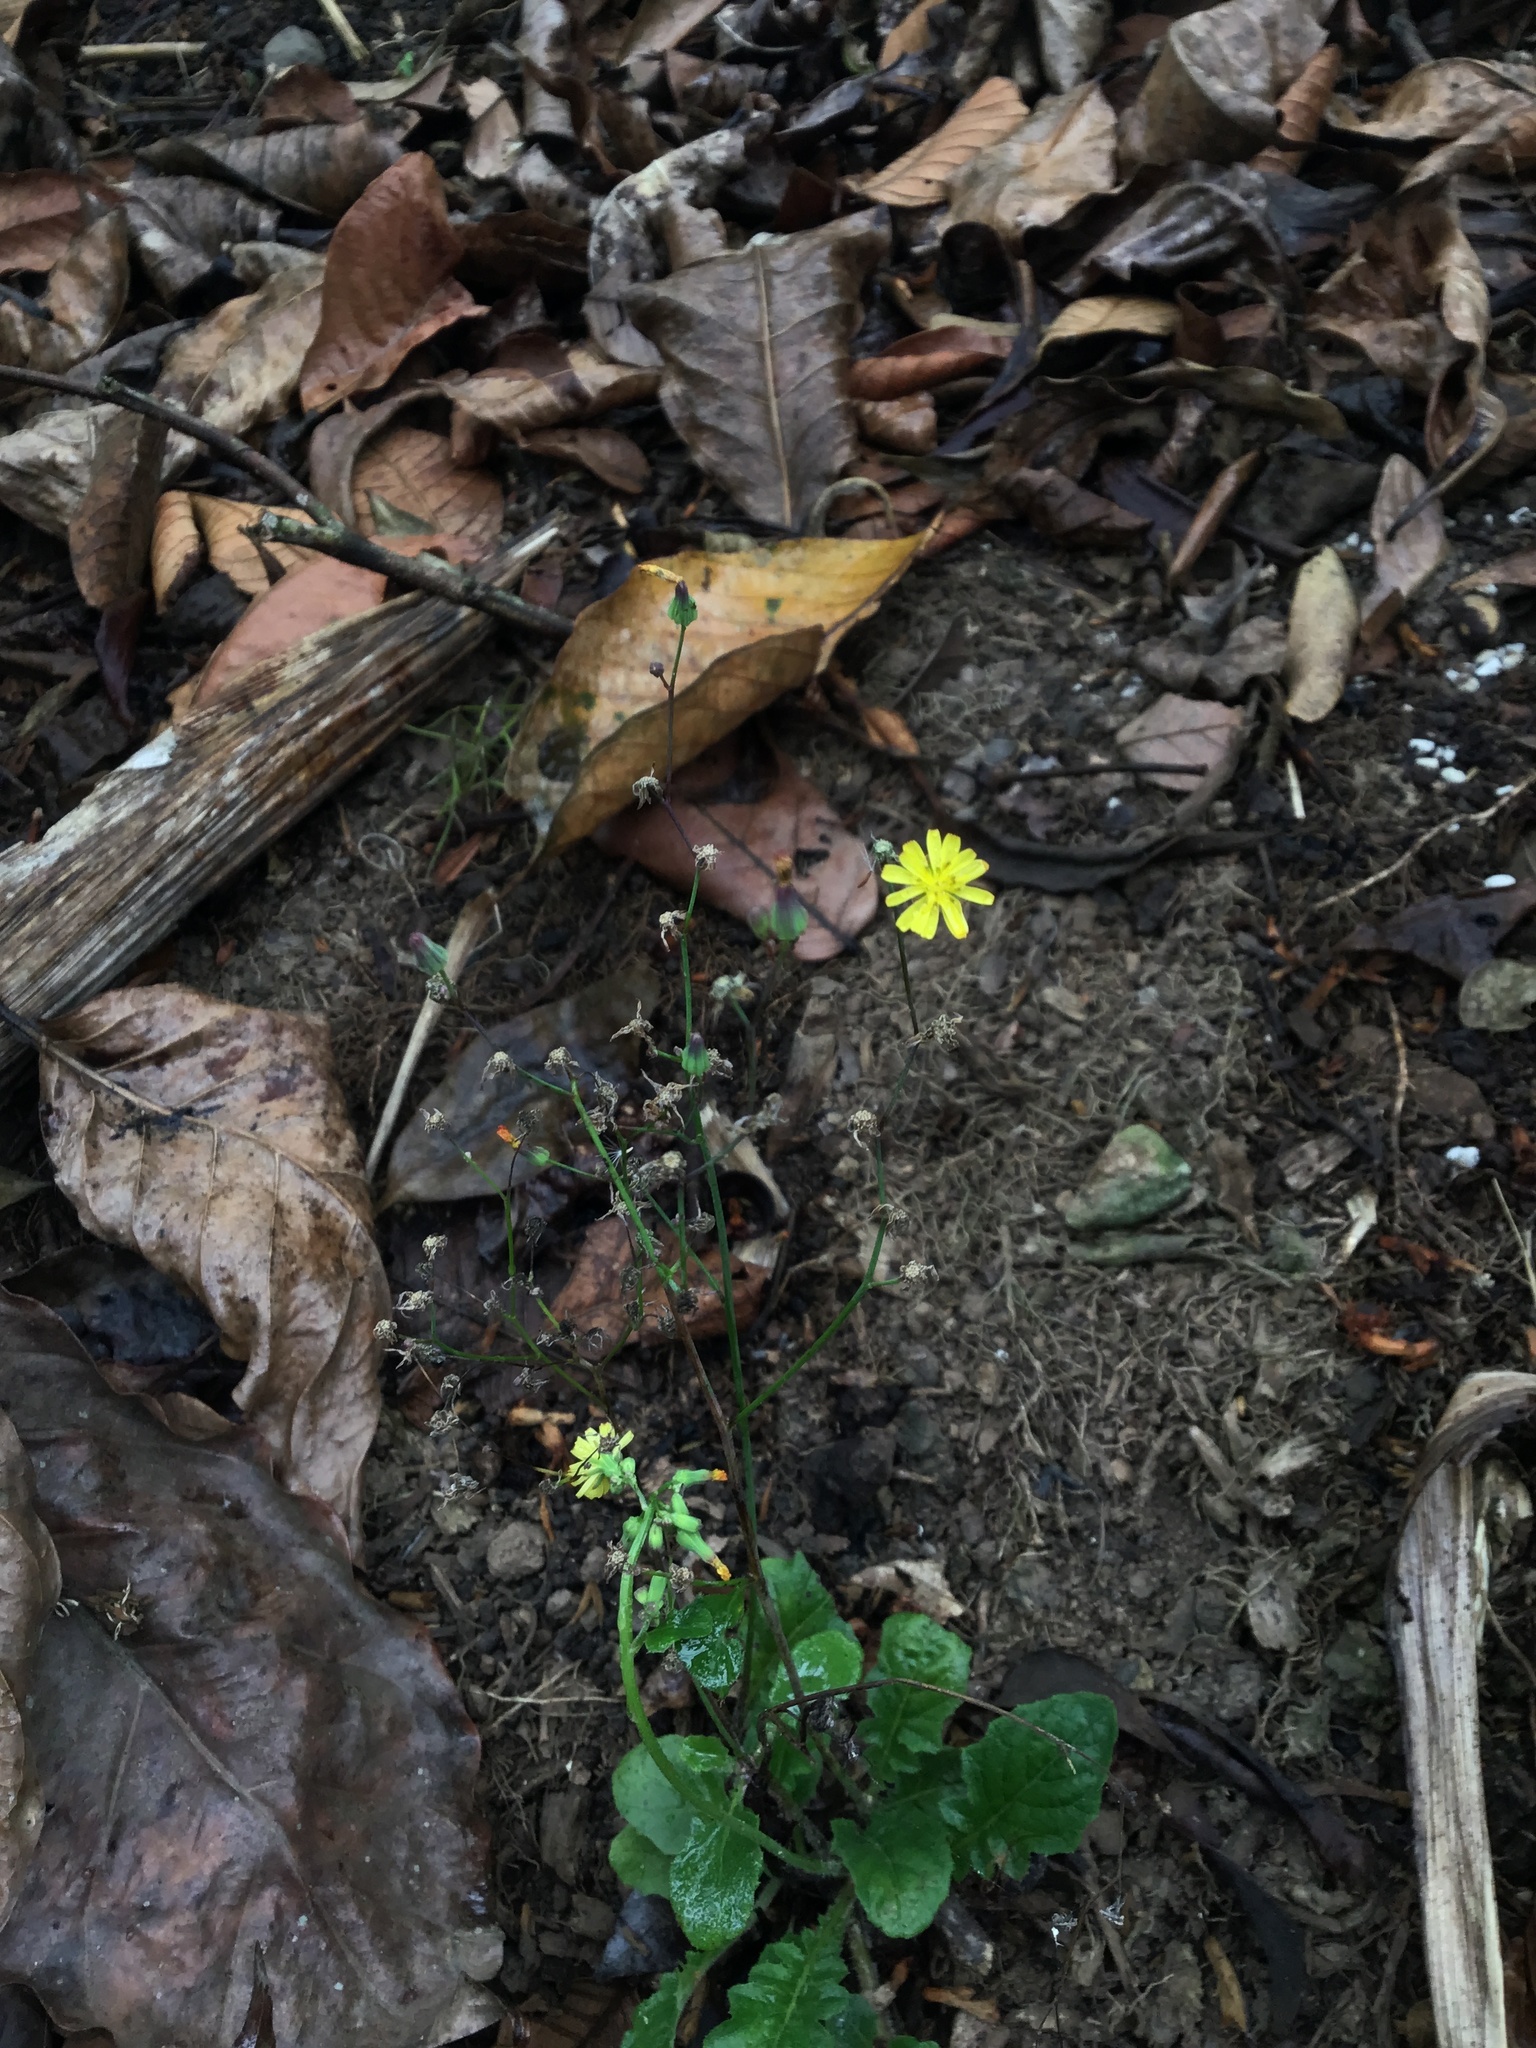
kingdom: Plantae
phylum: Tracheophyta
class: Magnoliopsida
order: Asterales
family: Asteraceae
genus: Youngia
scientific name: Youngia japonica
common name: Oriental false hawksbeard
